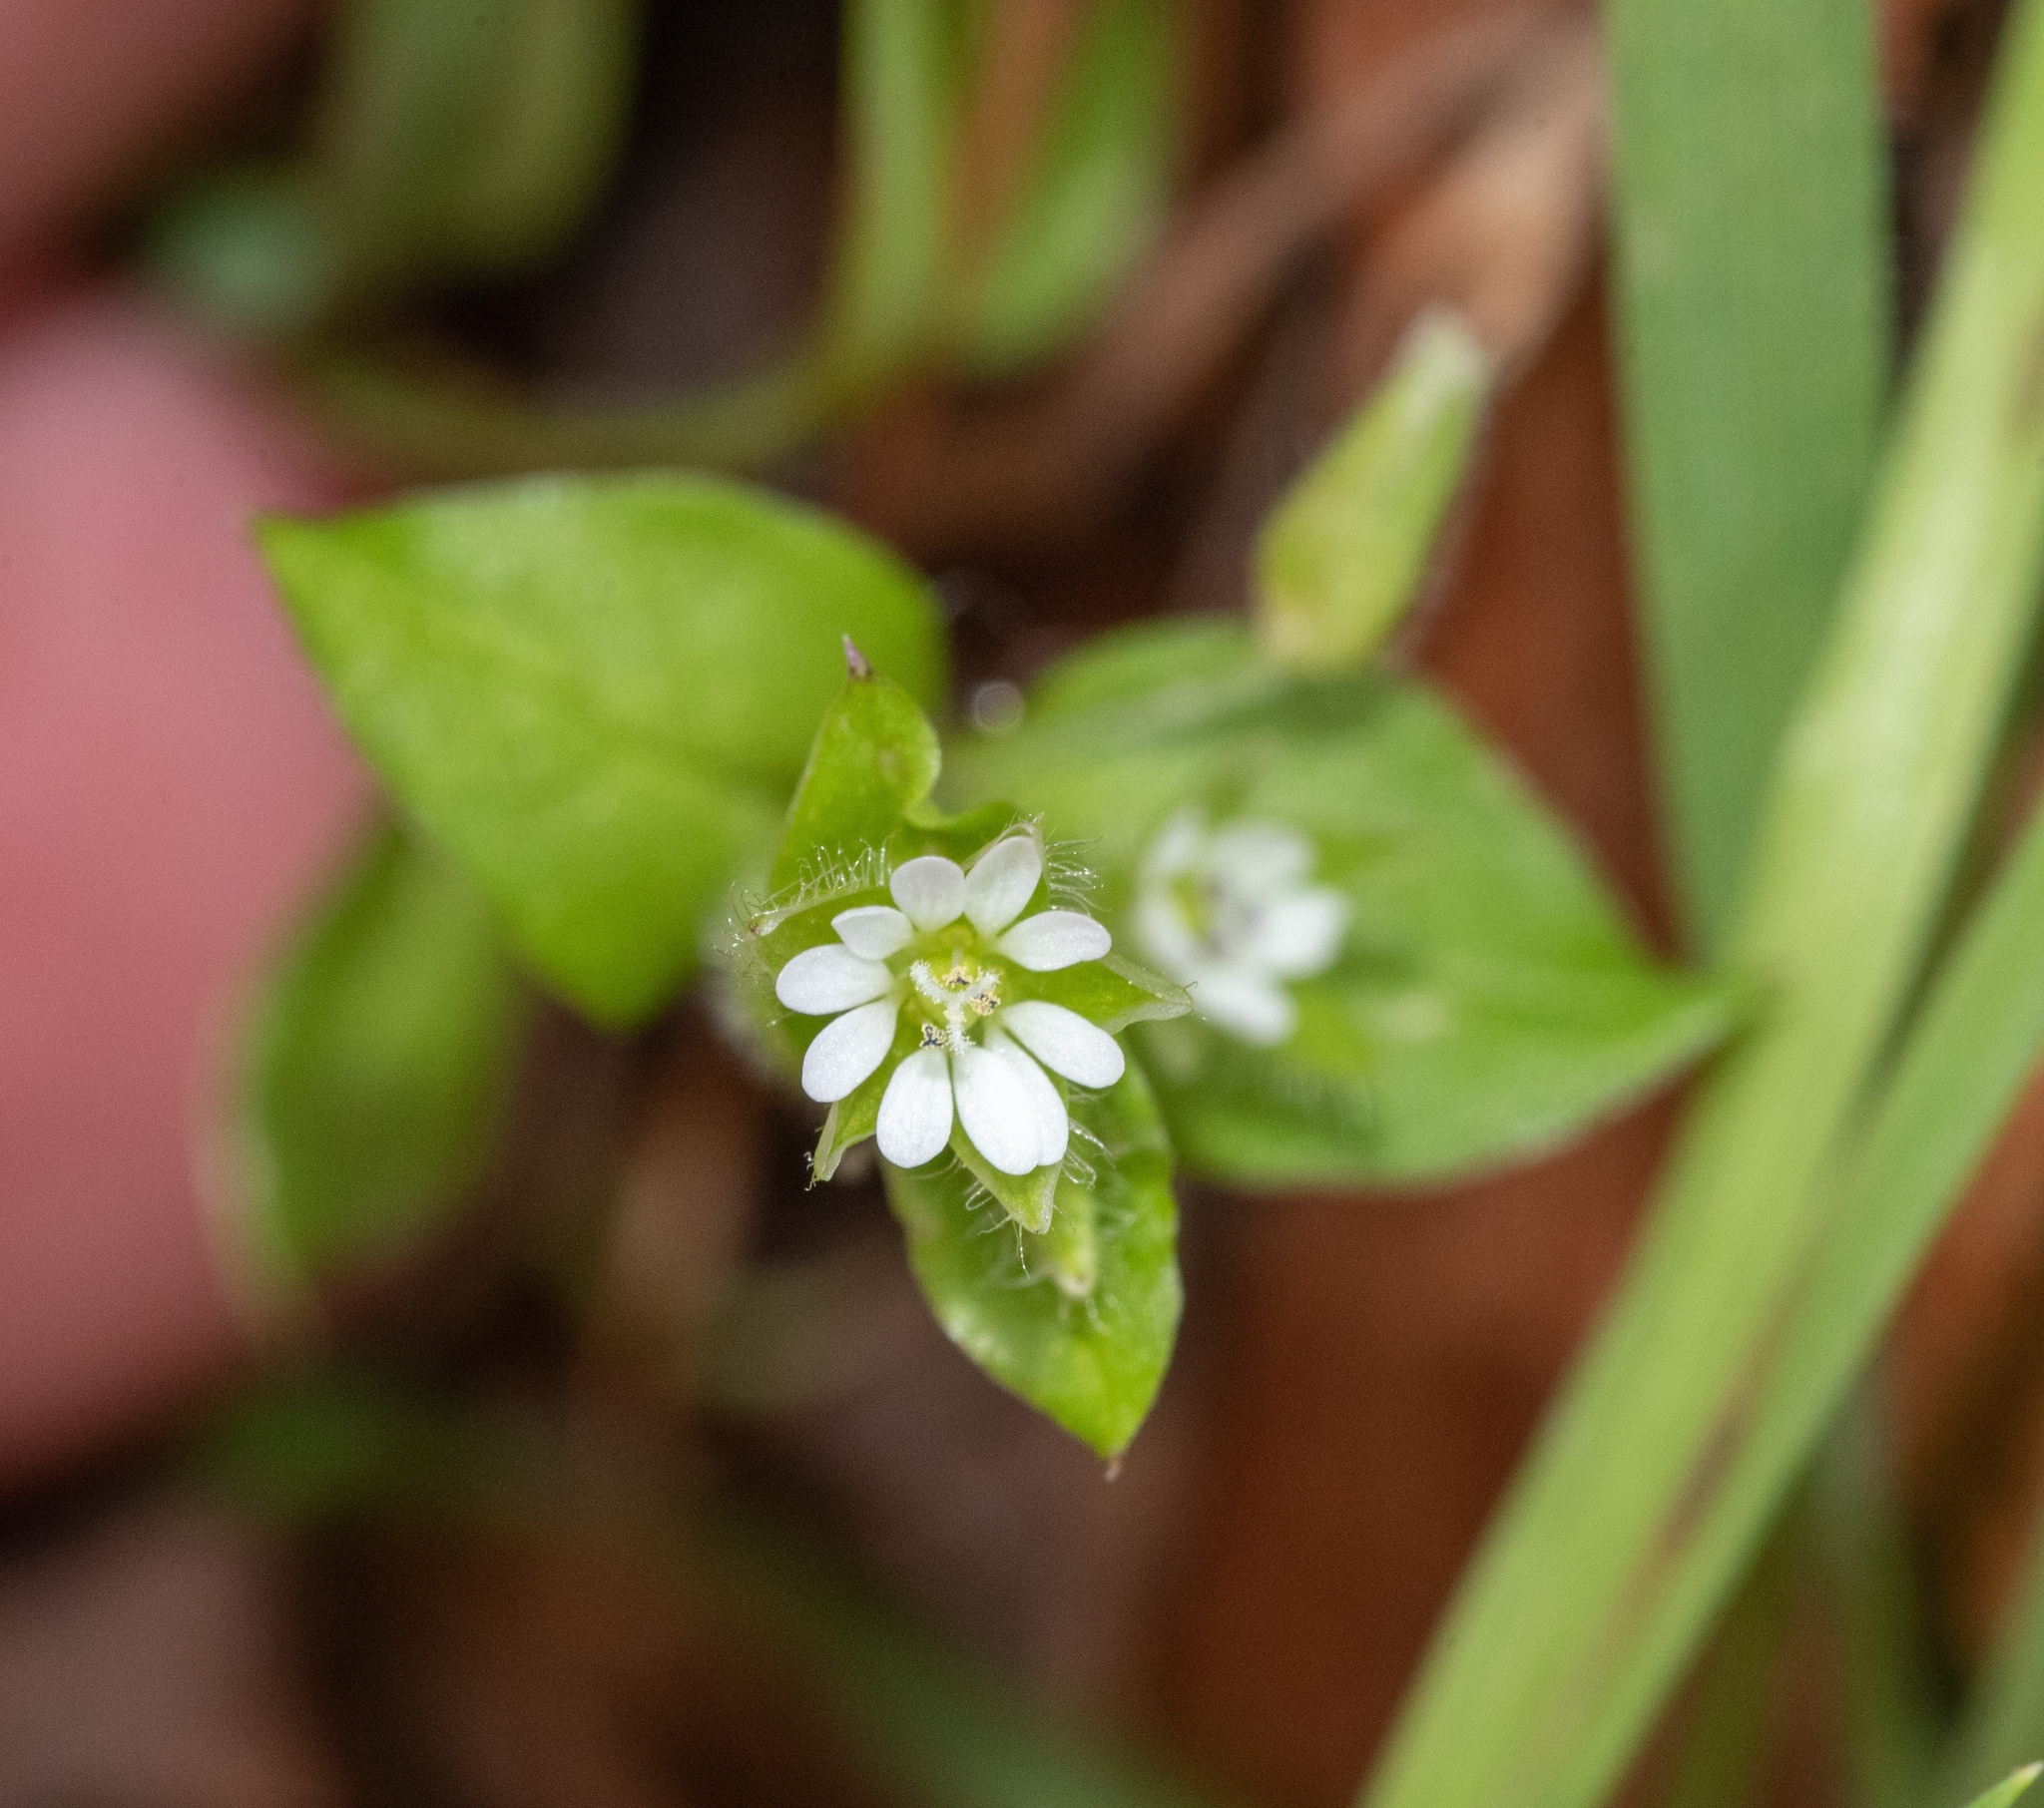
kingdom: Plantae
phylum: Tracheophyta
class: Magnoliopsida
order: Caryophyllales
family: Caryophyllaceae
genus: Stellaria
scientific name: Stellaria media
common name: Common chickweed
